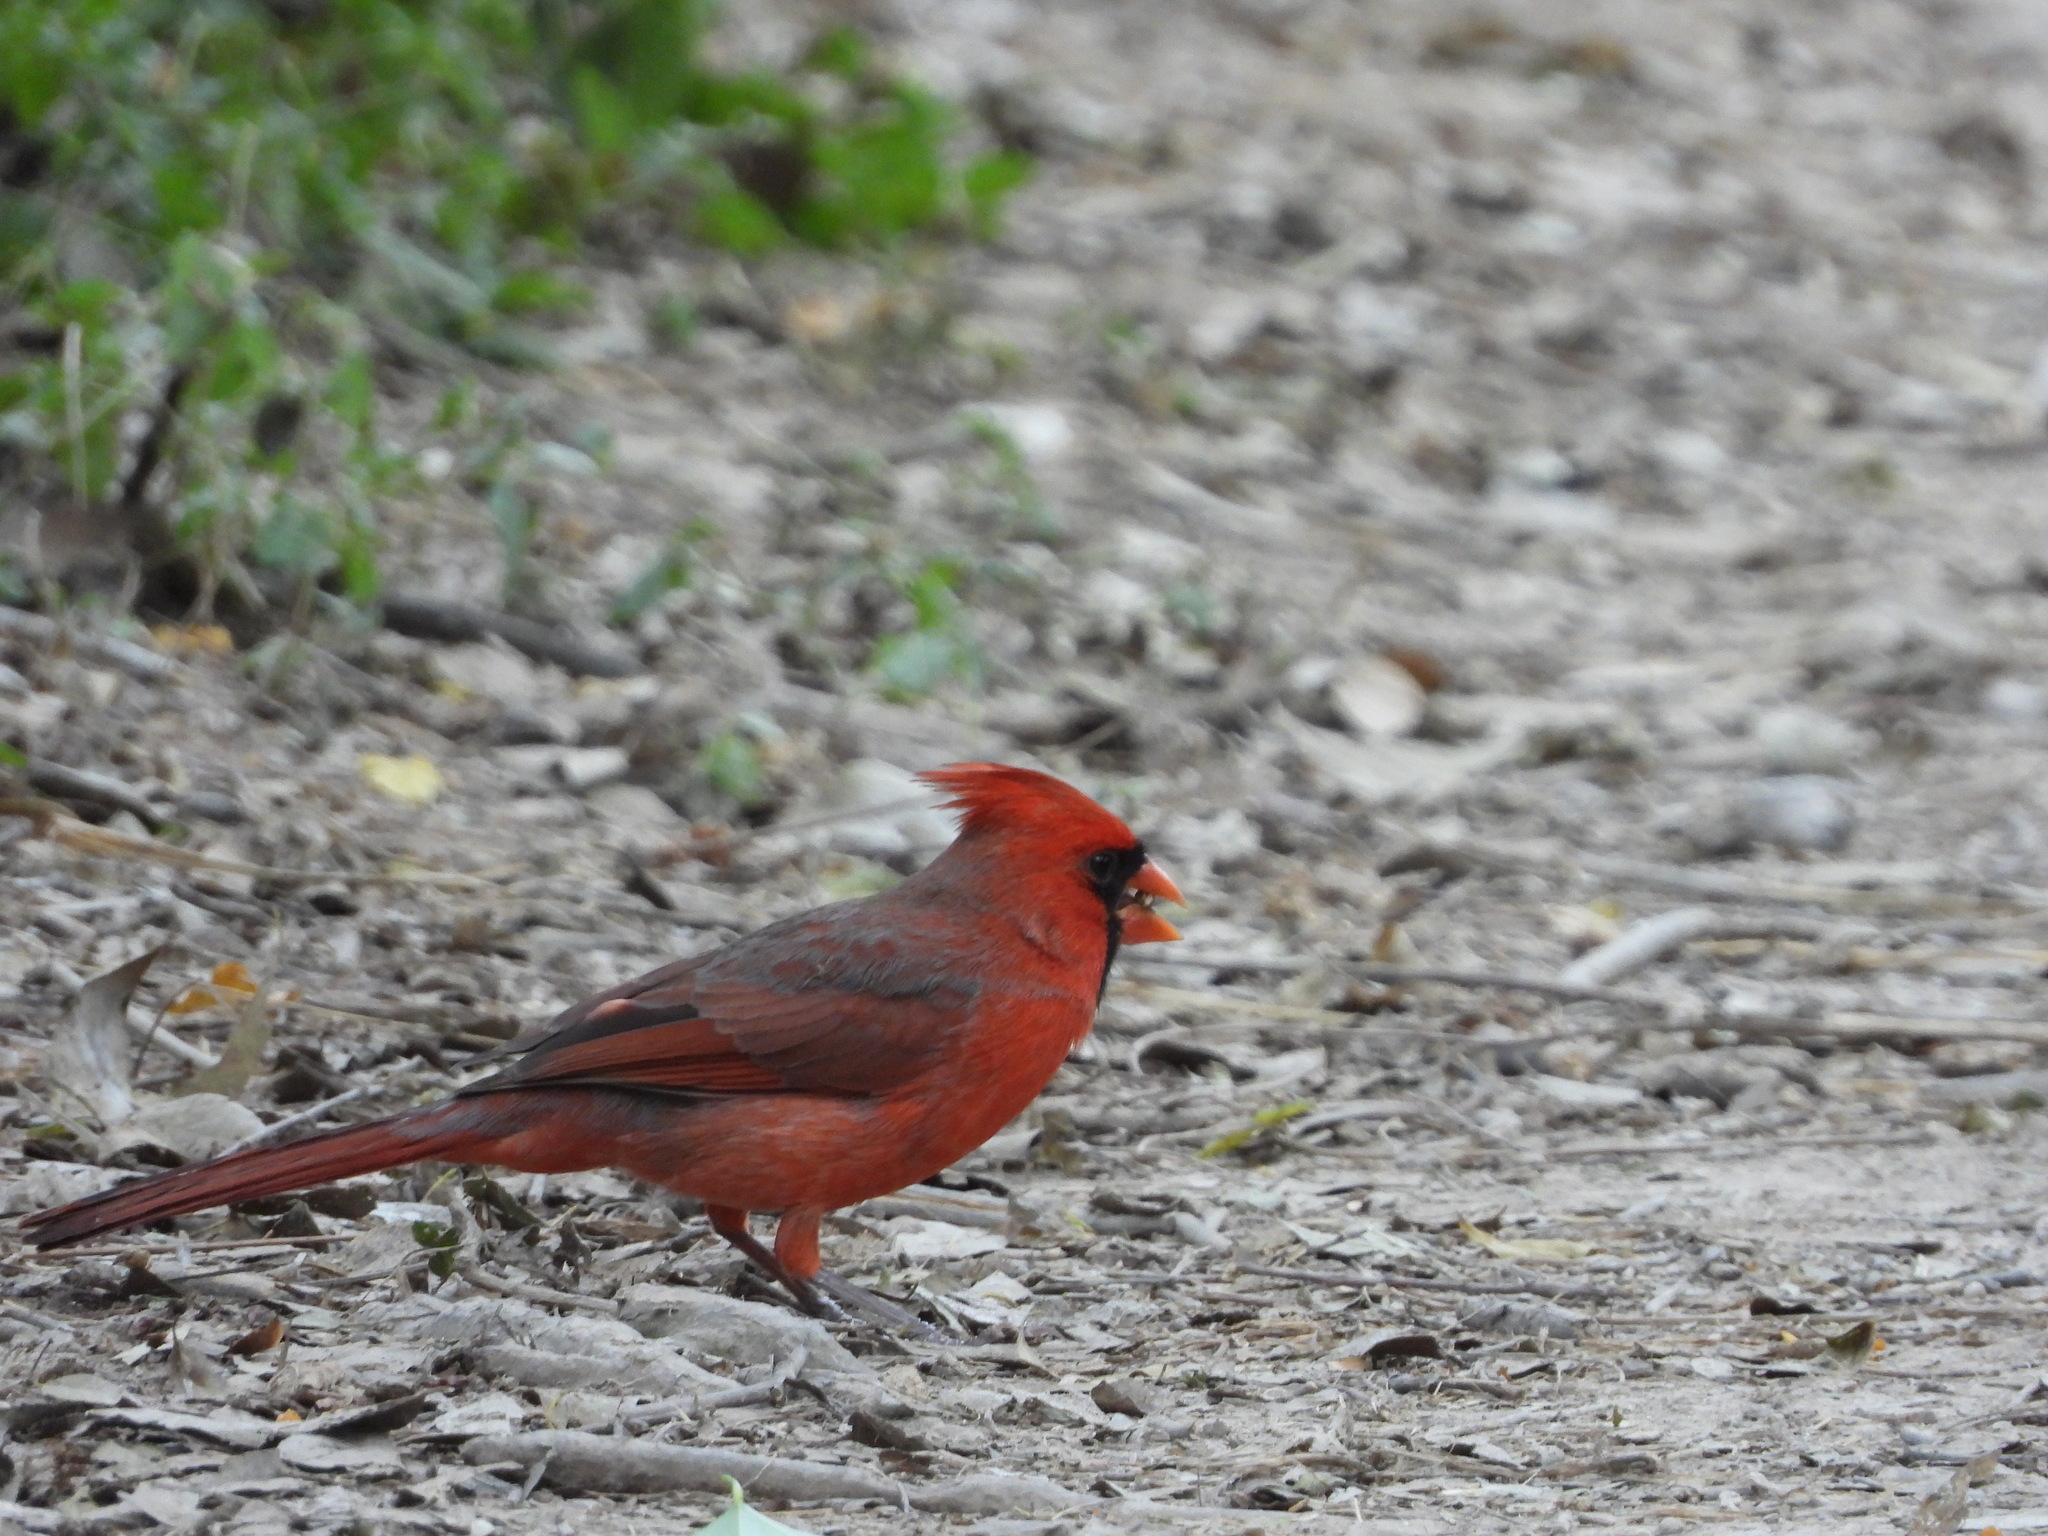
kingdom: Animalia
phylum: Chordata
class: Aves
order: Passeriformes
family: Cardinalidae
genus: Cardinalis
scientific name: Cardinalis cardinalis
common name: Northern cardinal
